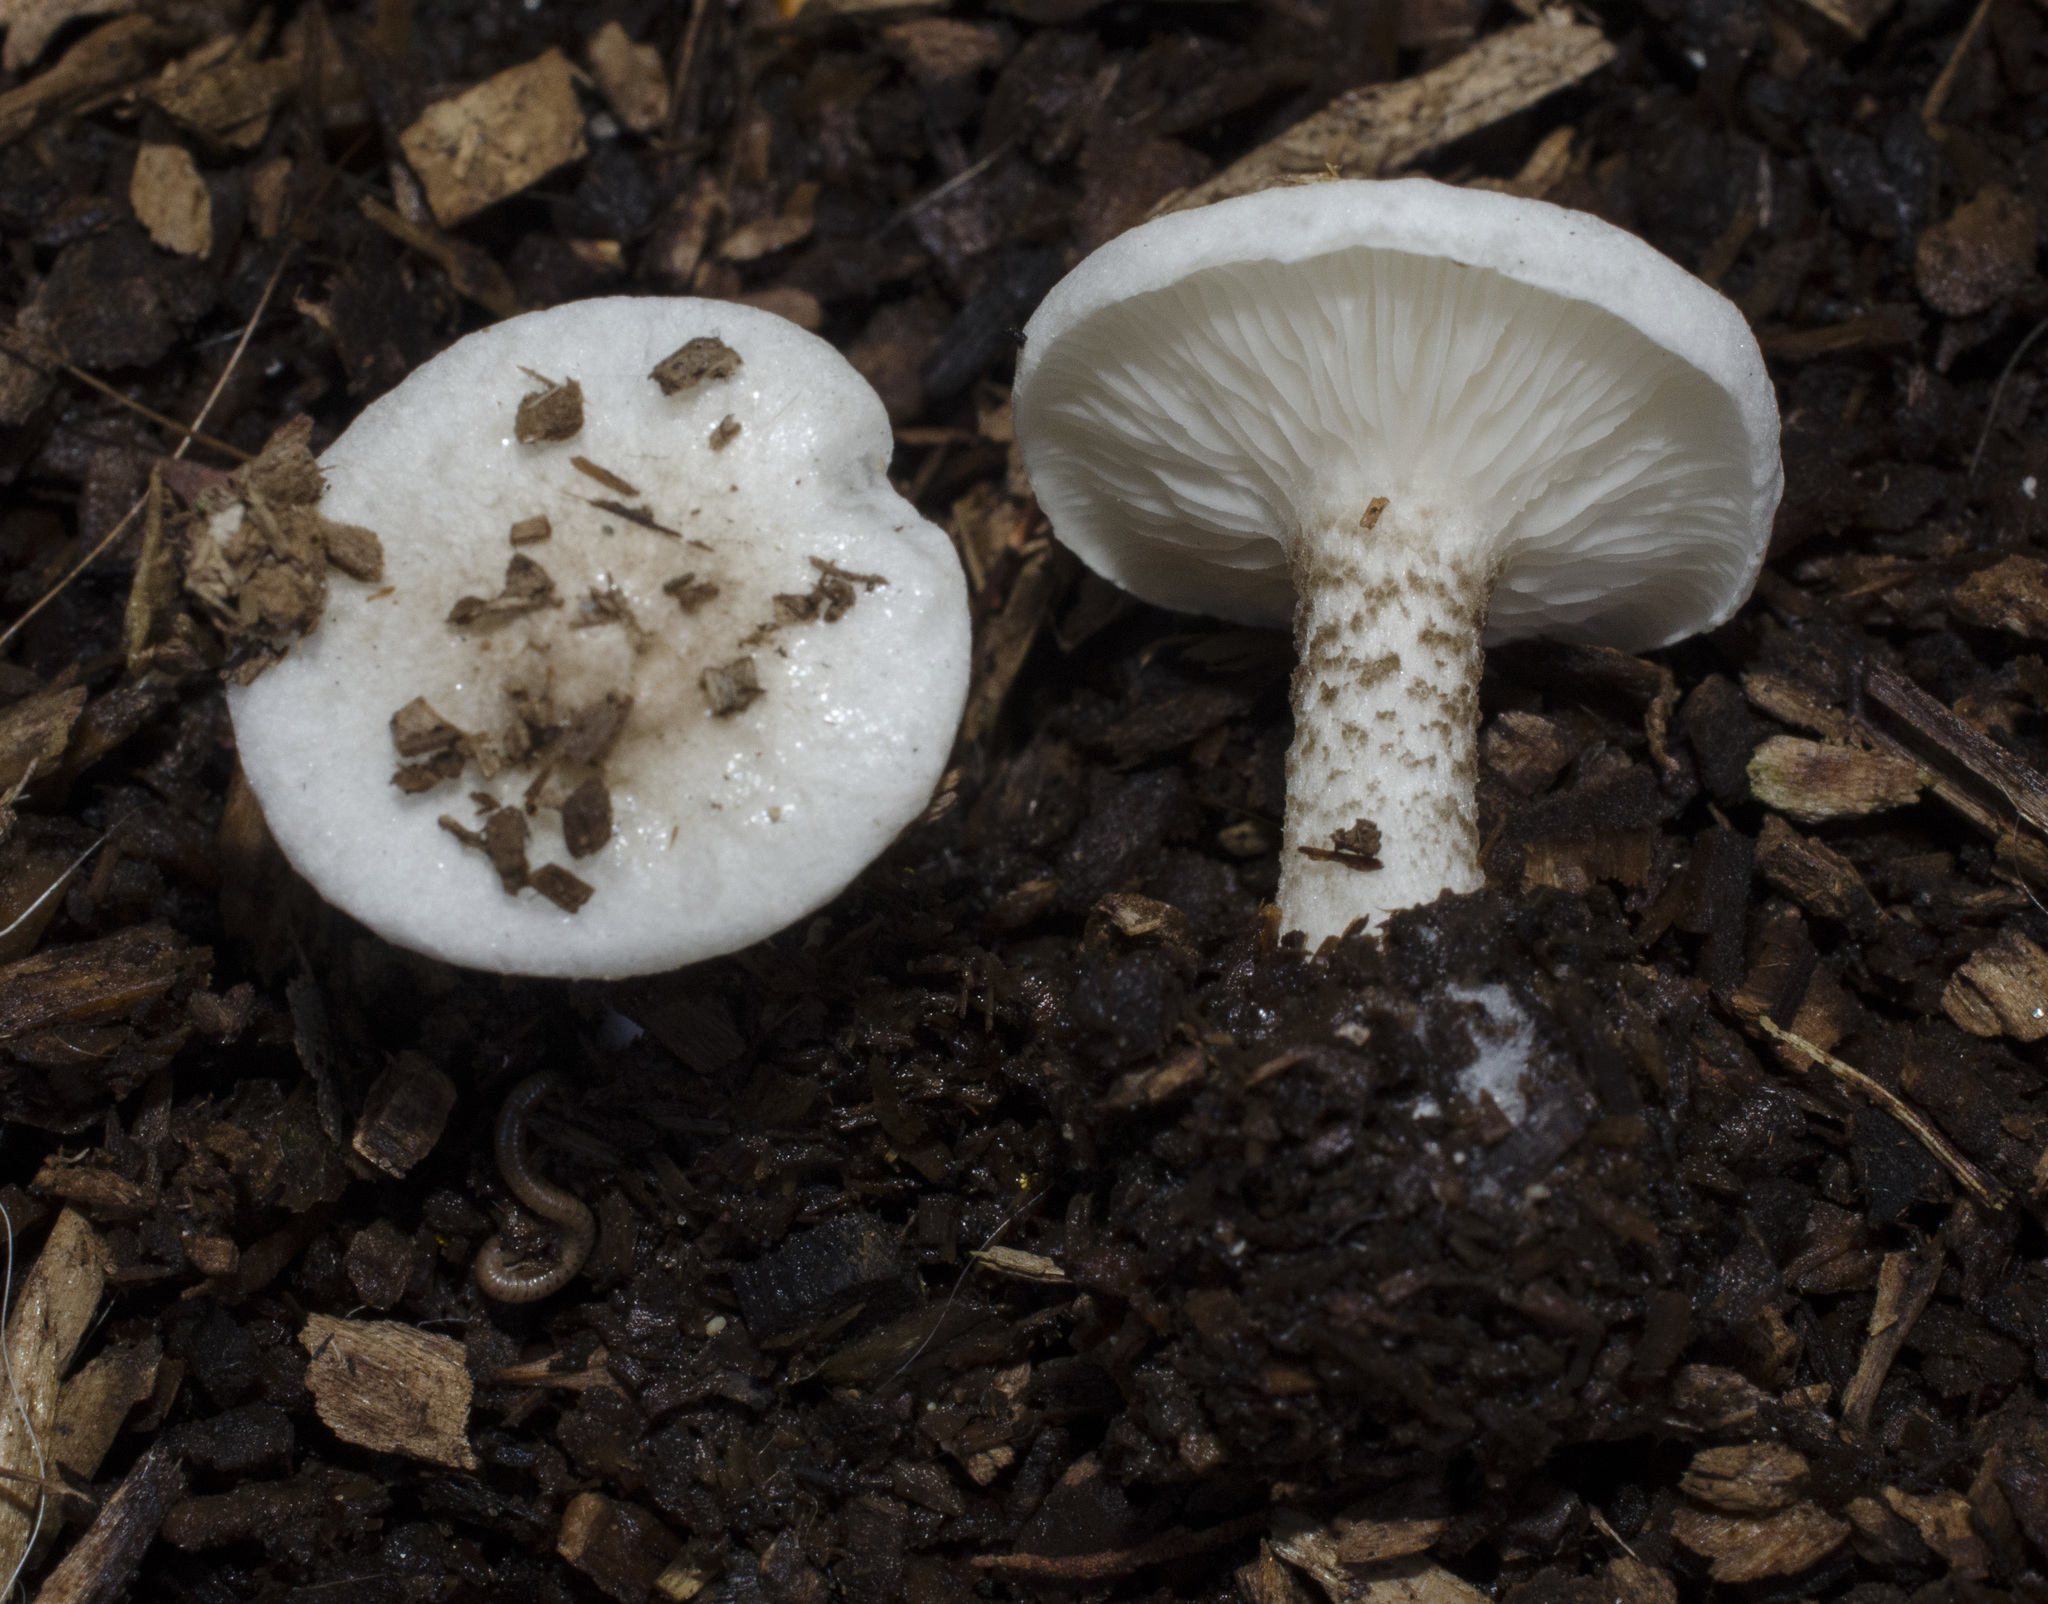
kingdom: Fungi
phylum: Basidiomycota
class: Agaricomycetes
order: Agaricales
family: Tricholomataceae
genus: Melanoleuca
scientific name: Melanoleuca verrucipes
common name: Warty cavalier
